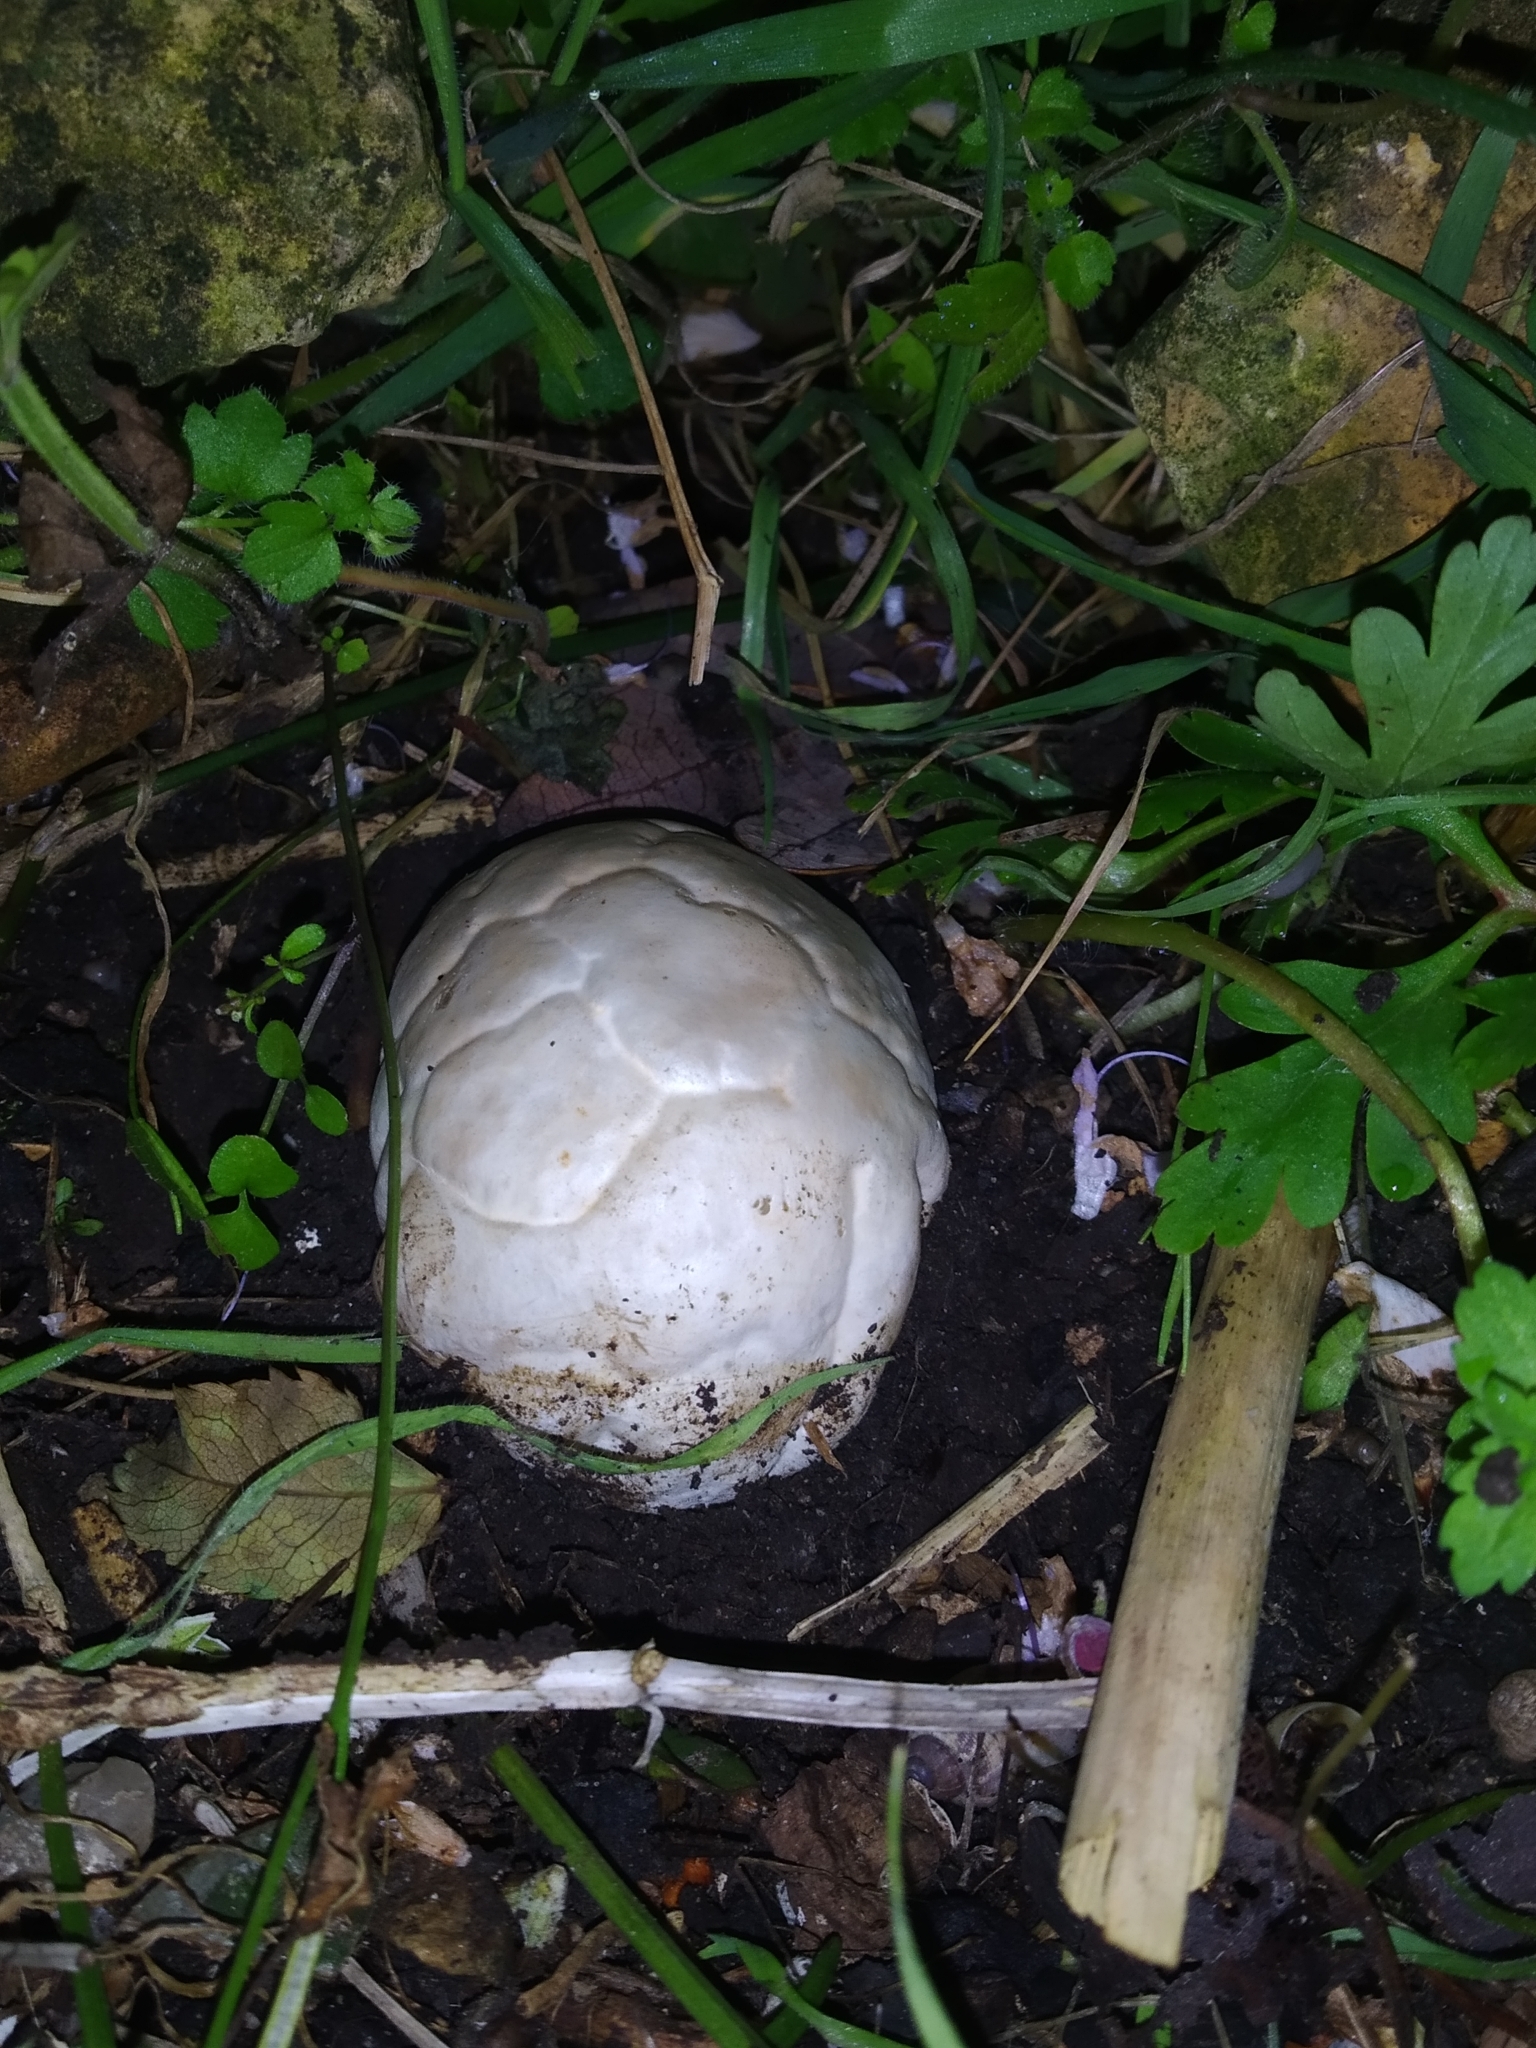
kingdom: Fungi
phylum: Basidiomycota
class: Agaricomycetes
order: Phallales
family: Phallaceae
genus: Clathrus
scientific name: Clathrus ruber
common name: Red cage
